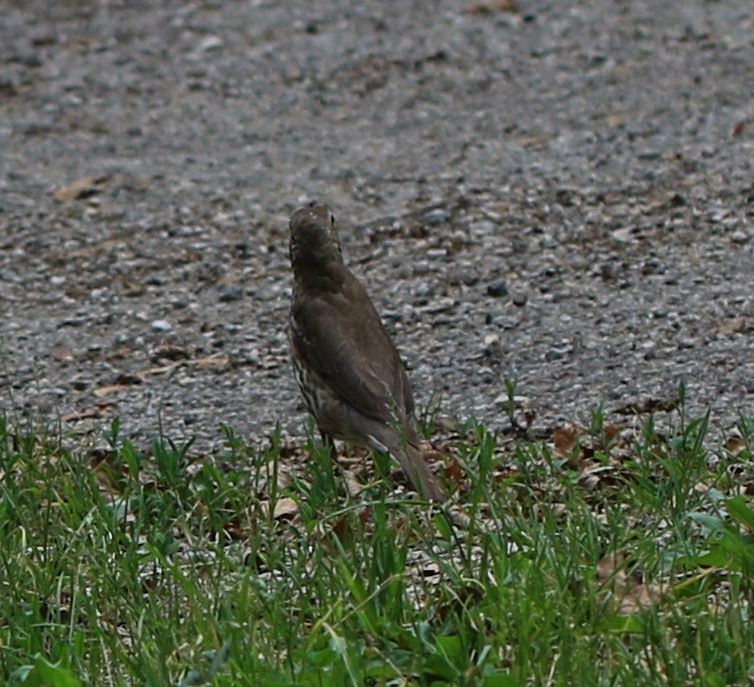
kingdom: Animalia
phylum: Chordata
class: Aves
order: Passeriformes
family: Turdidae
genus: Turdus
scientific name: Turdus philomelos
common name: Song thrush
